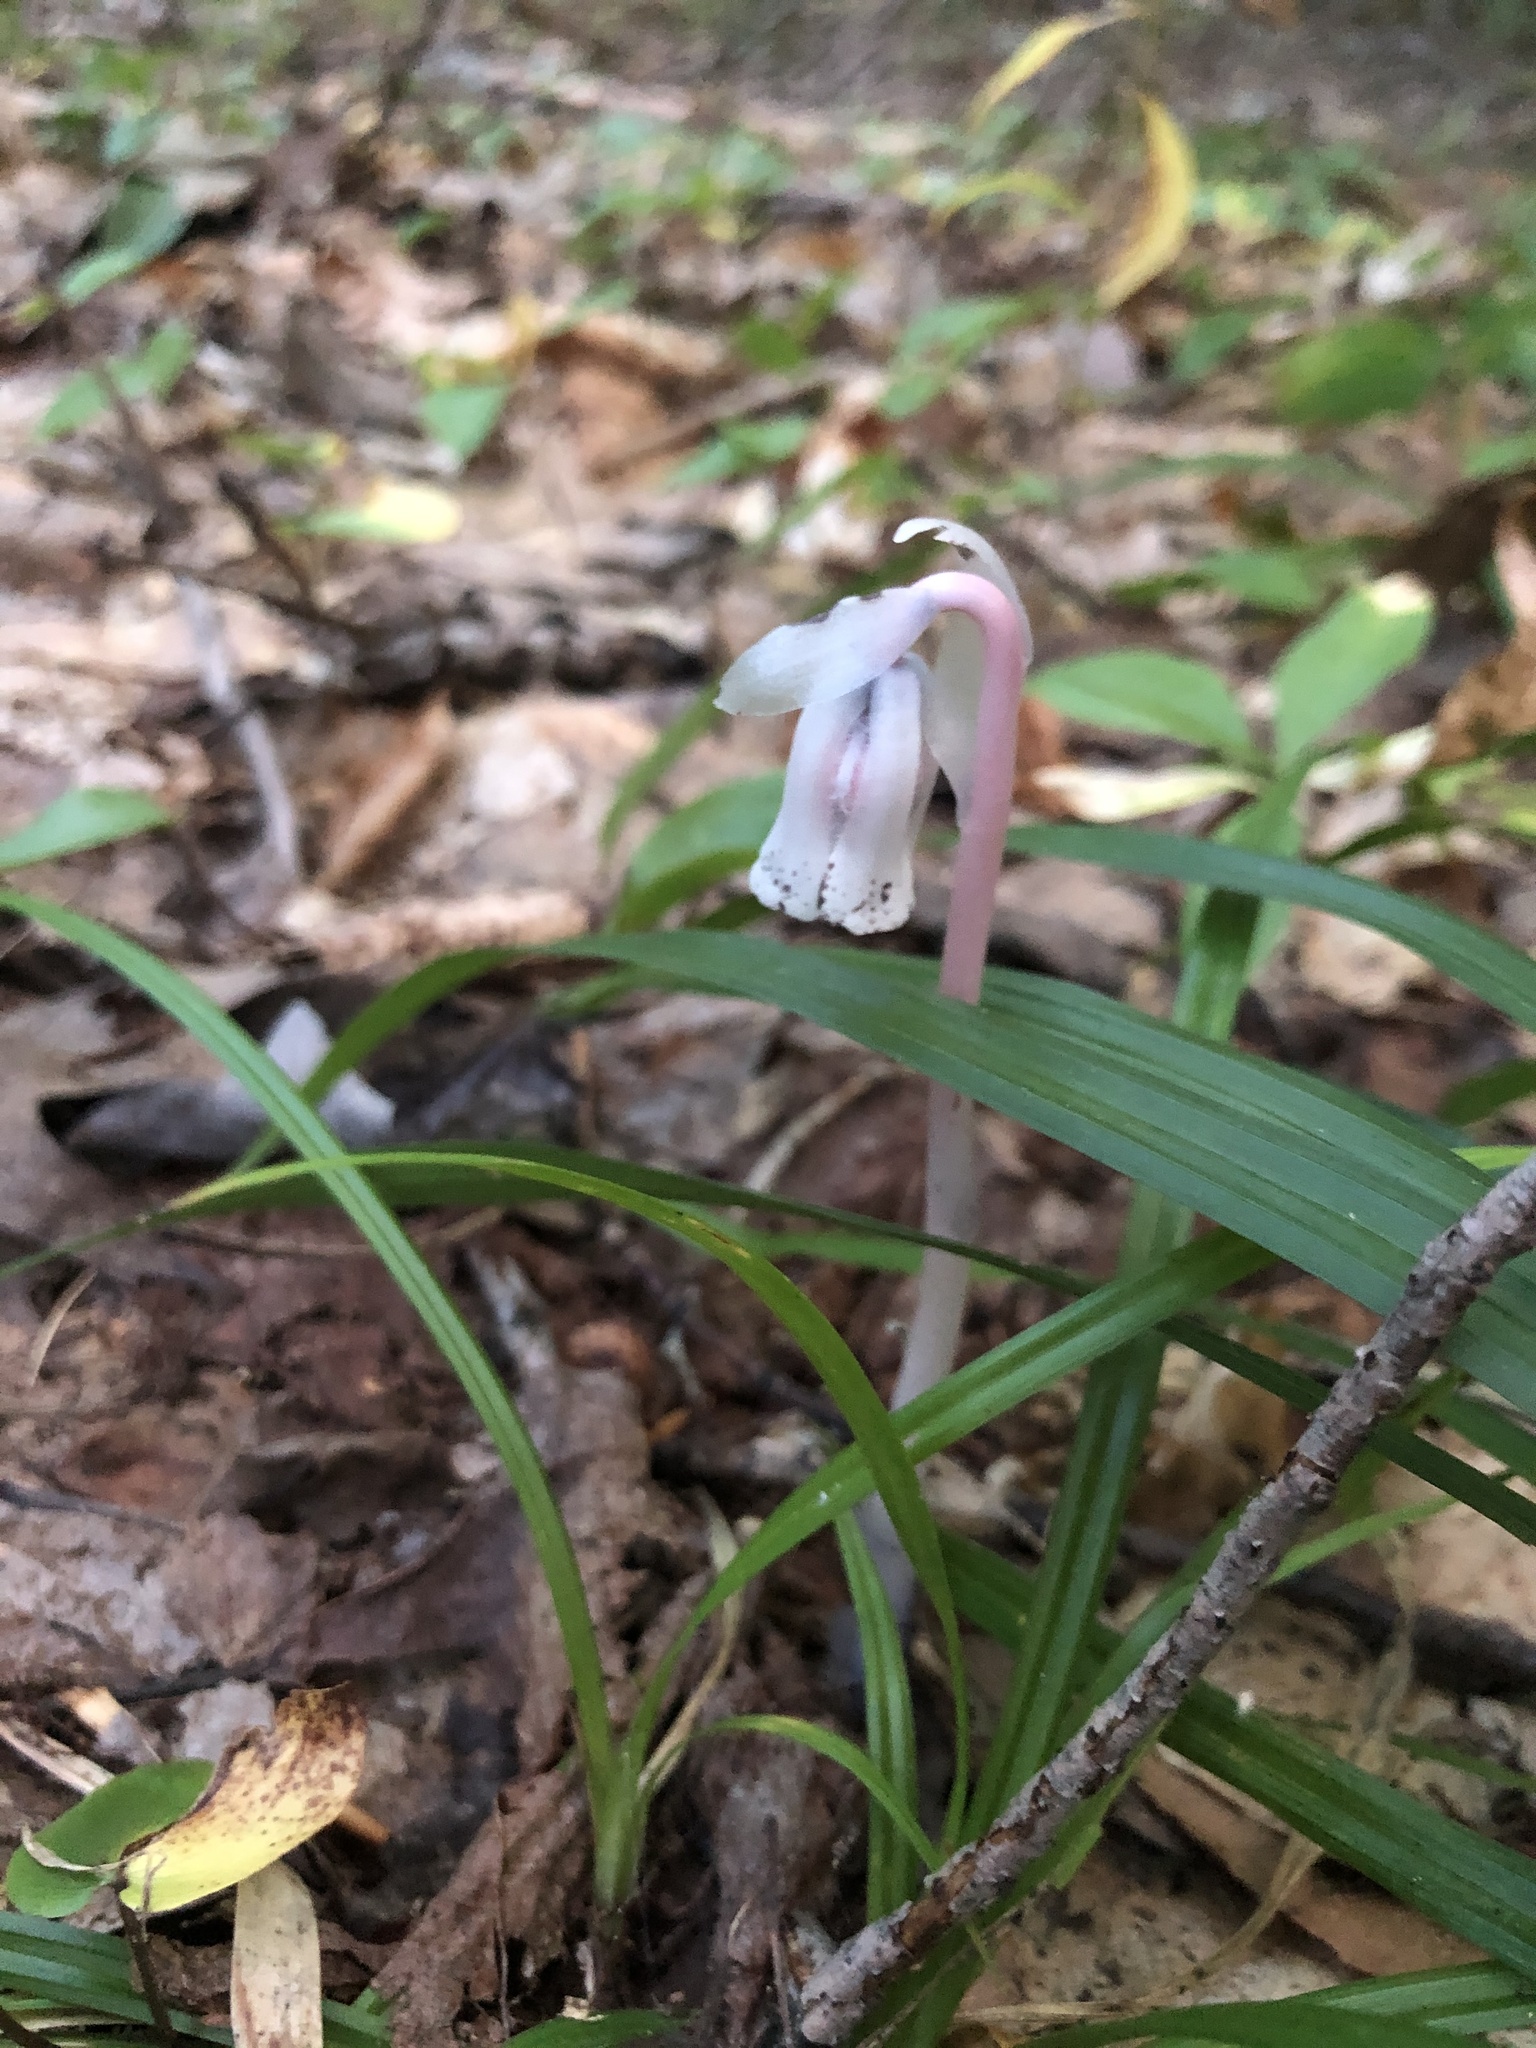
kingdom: Plantae
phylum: Tracheophyta
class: Magnoliopsida
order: Ericales
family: Ericaceae
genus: Monotropa
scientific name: Monotropa uniflora
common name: Convulsion root
